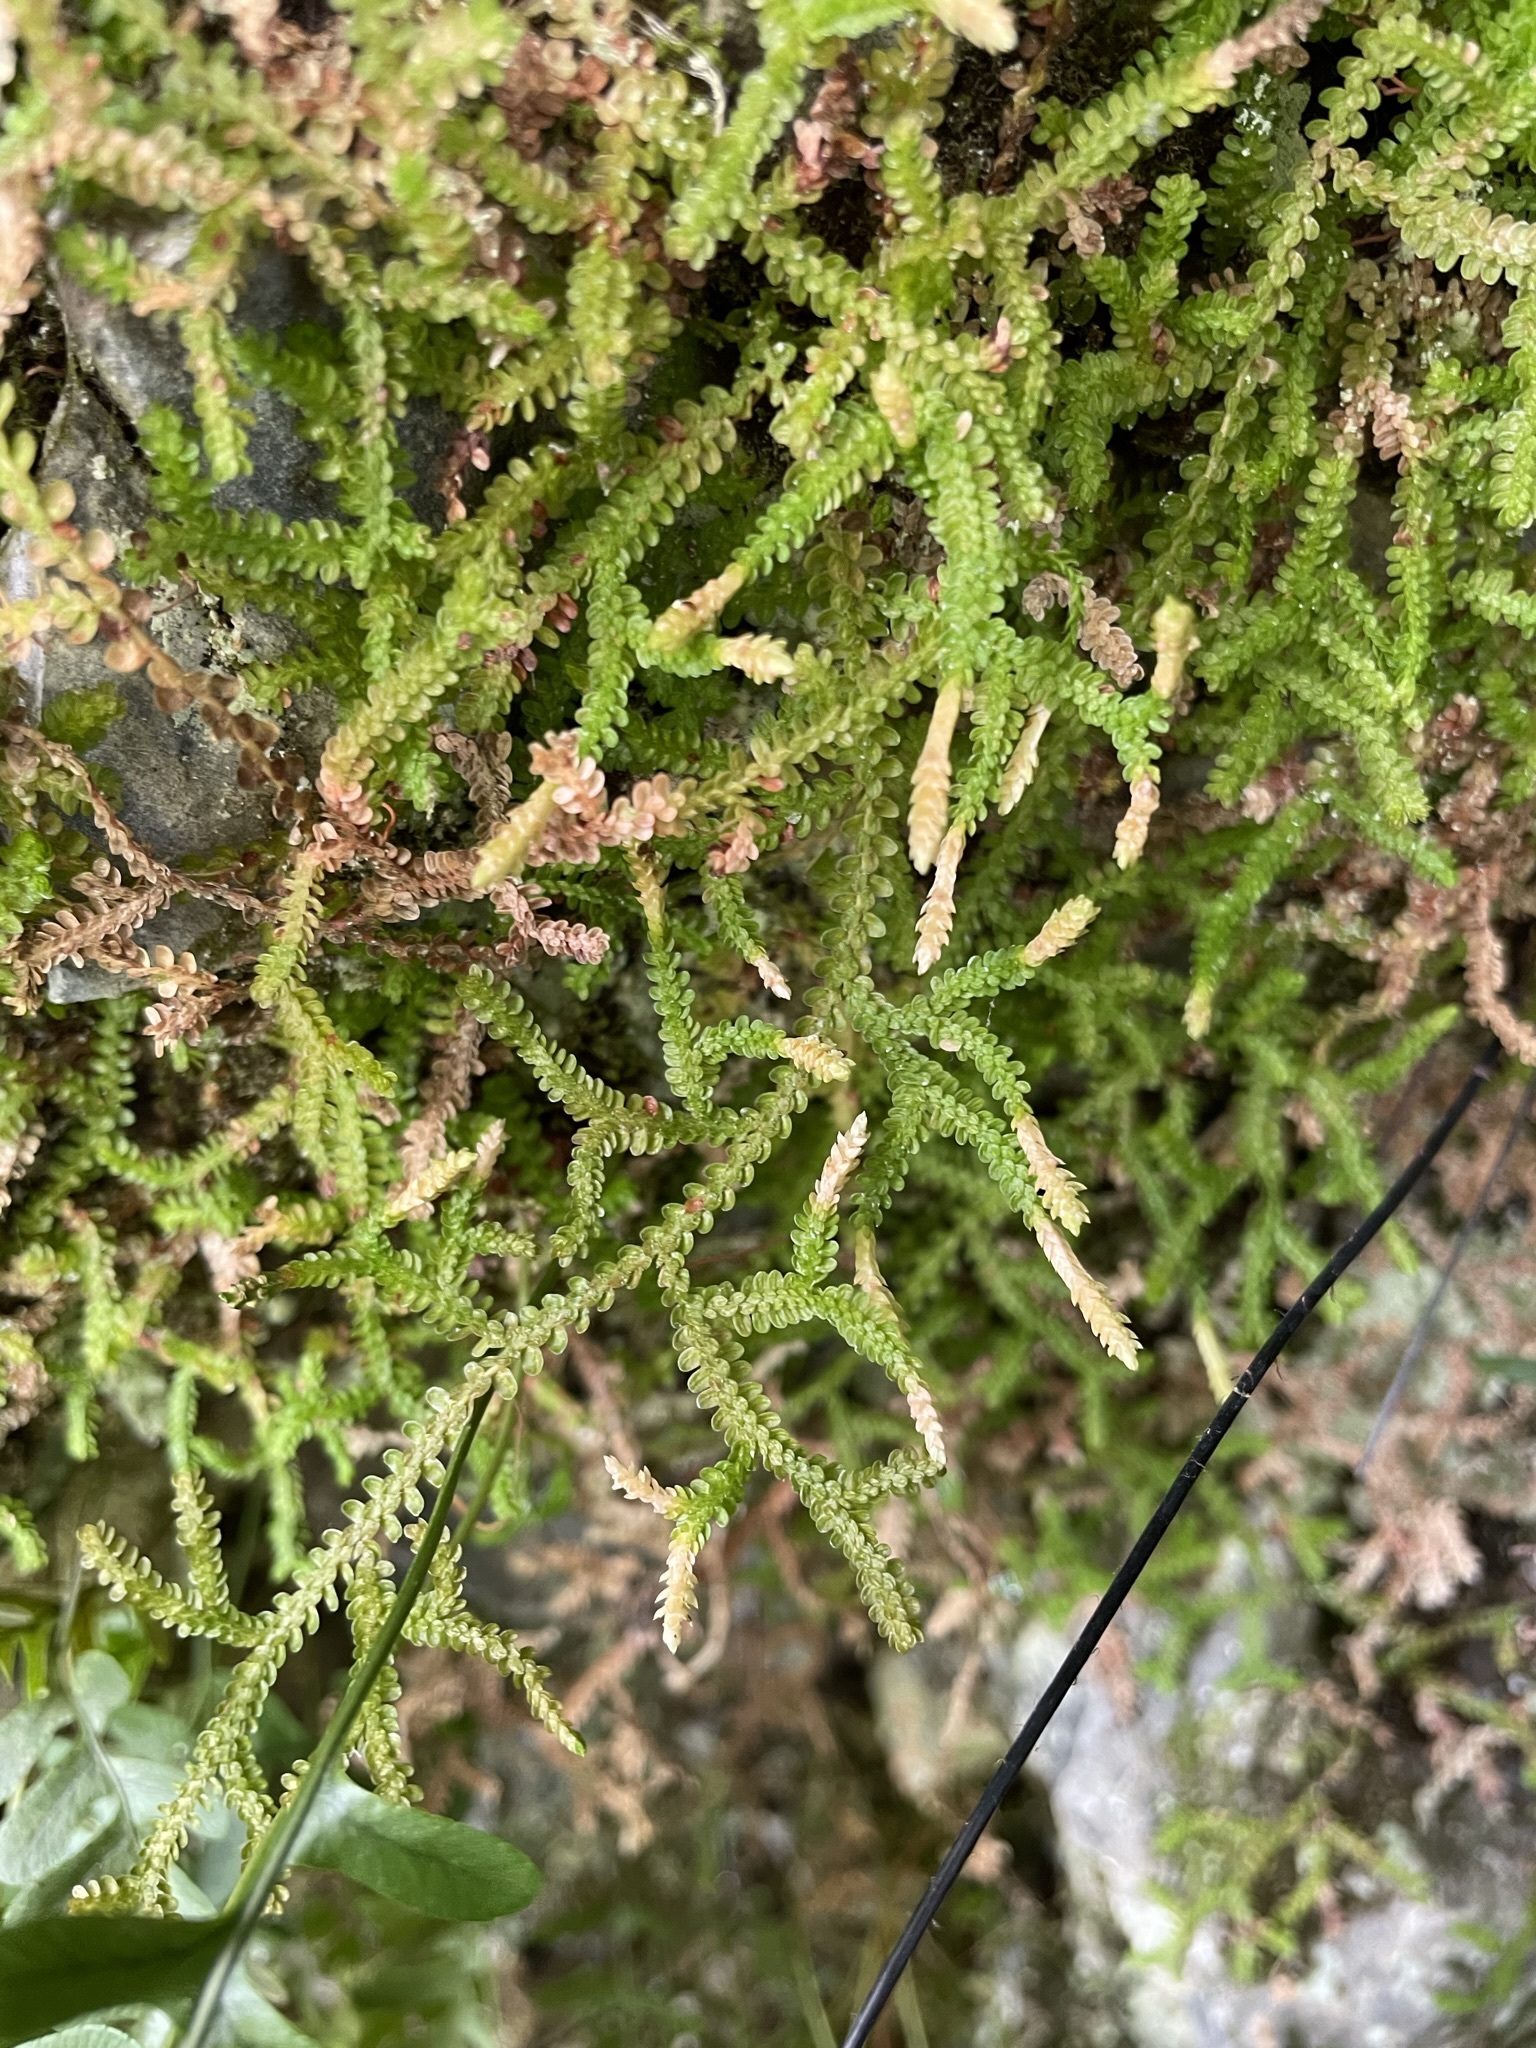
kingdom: Plantae
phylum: Tracheophyta
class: Lycopodiopsida
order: Selaginellales
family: Selaginellaceae
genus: Selaginella
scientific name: Selaginella douglasii
